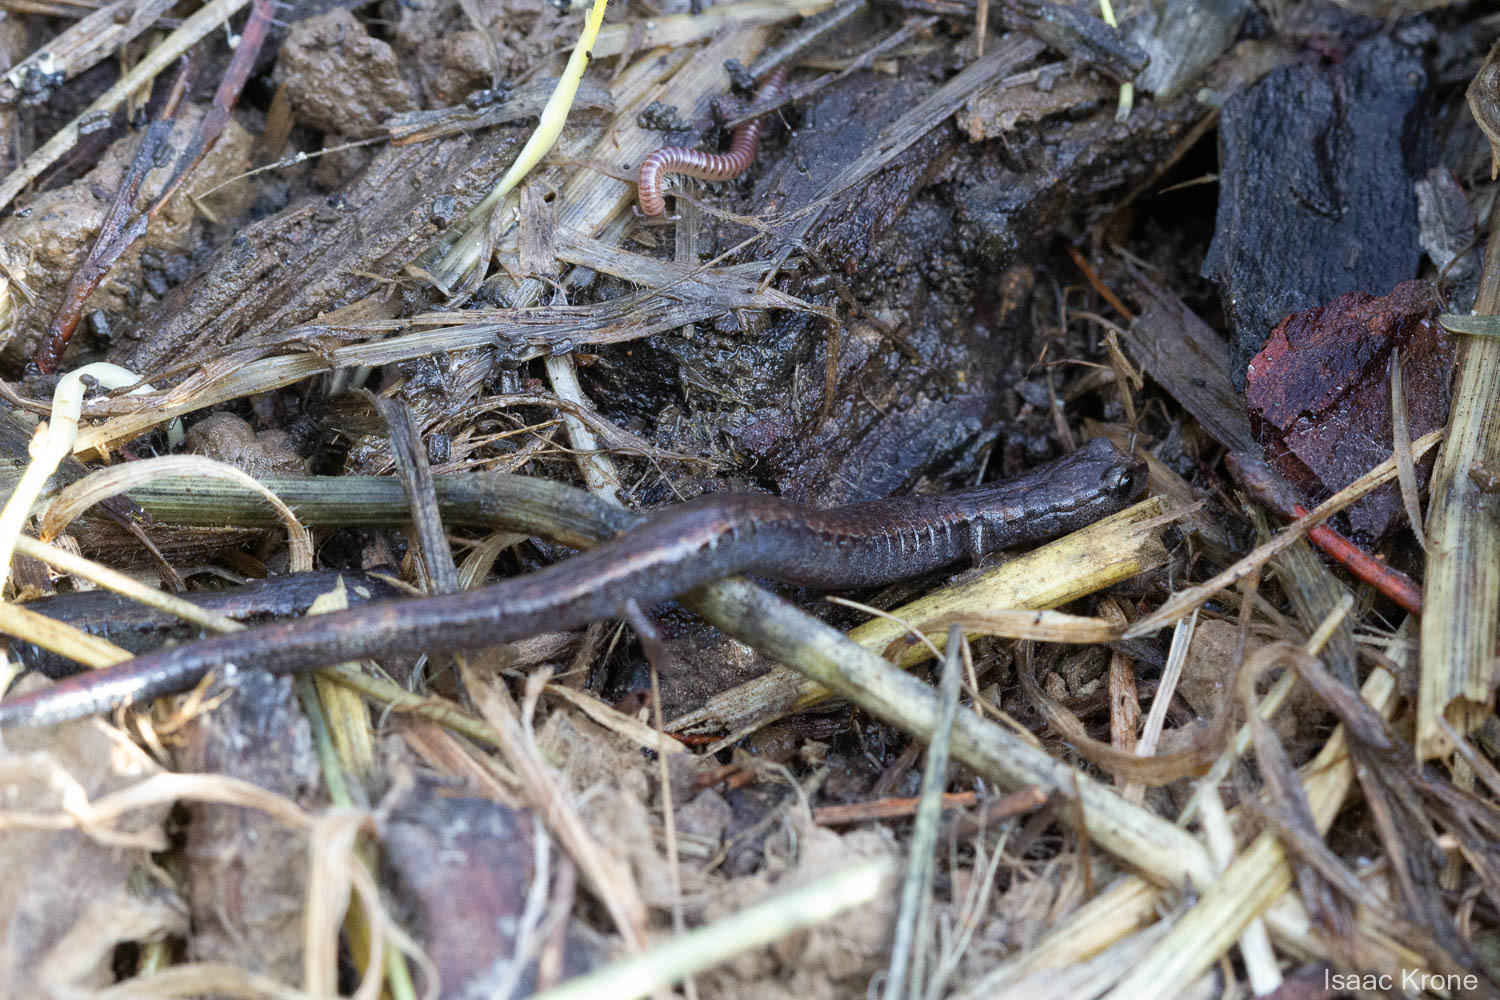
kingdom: Animalia
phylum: Chordata
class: Amphibia
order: Caudata
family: Plethodontidae
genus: Batrachoseps
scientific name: Batrachoseps attenuatus
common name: California slender salamander
